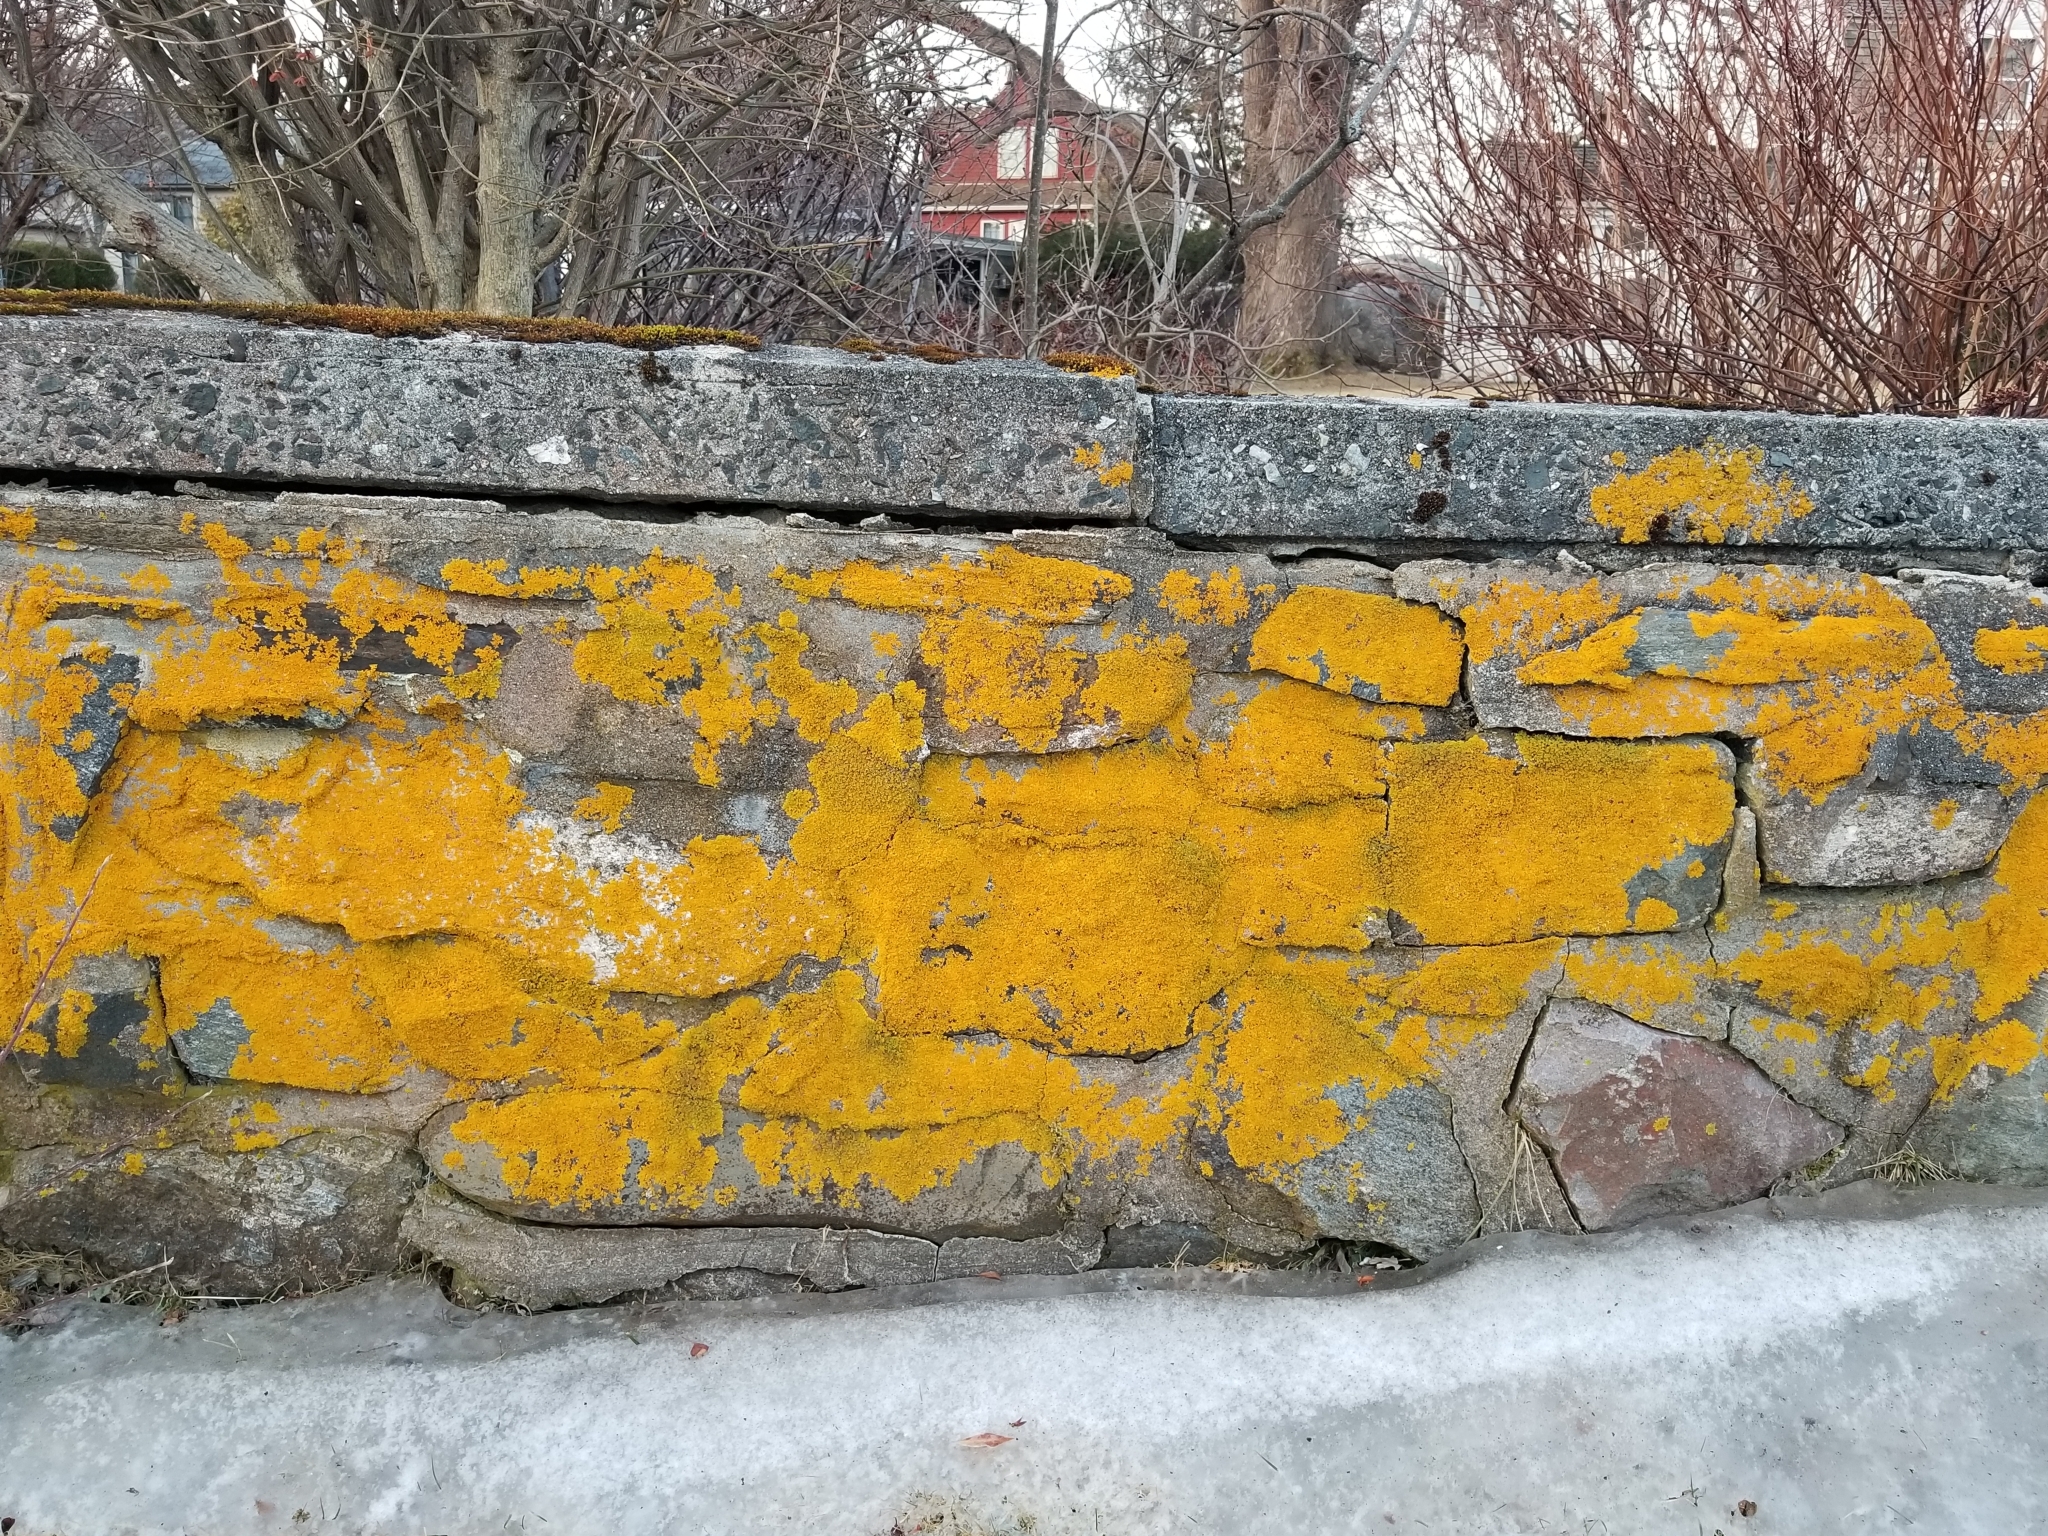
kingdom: Fungi
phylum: Ascomycota
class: Lecanoromycetes
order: Teloschistales
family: Teloschistaceae
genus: Xanthoria
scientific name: Xanthoria parietina
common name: Common orange lichen
